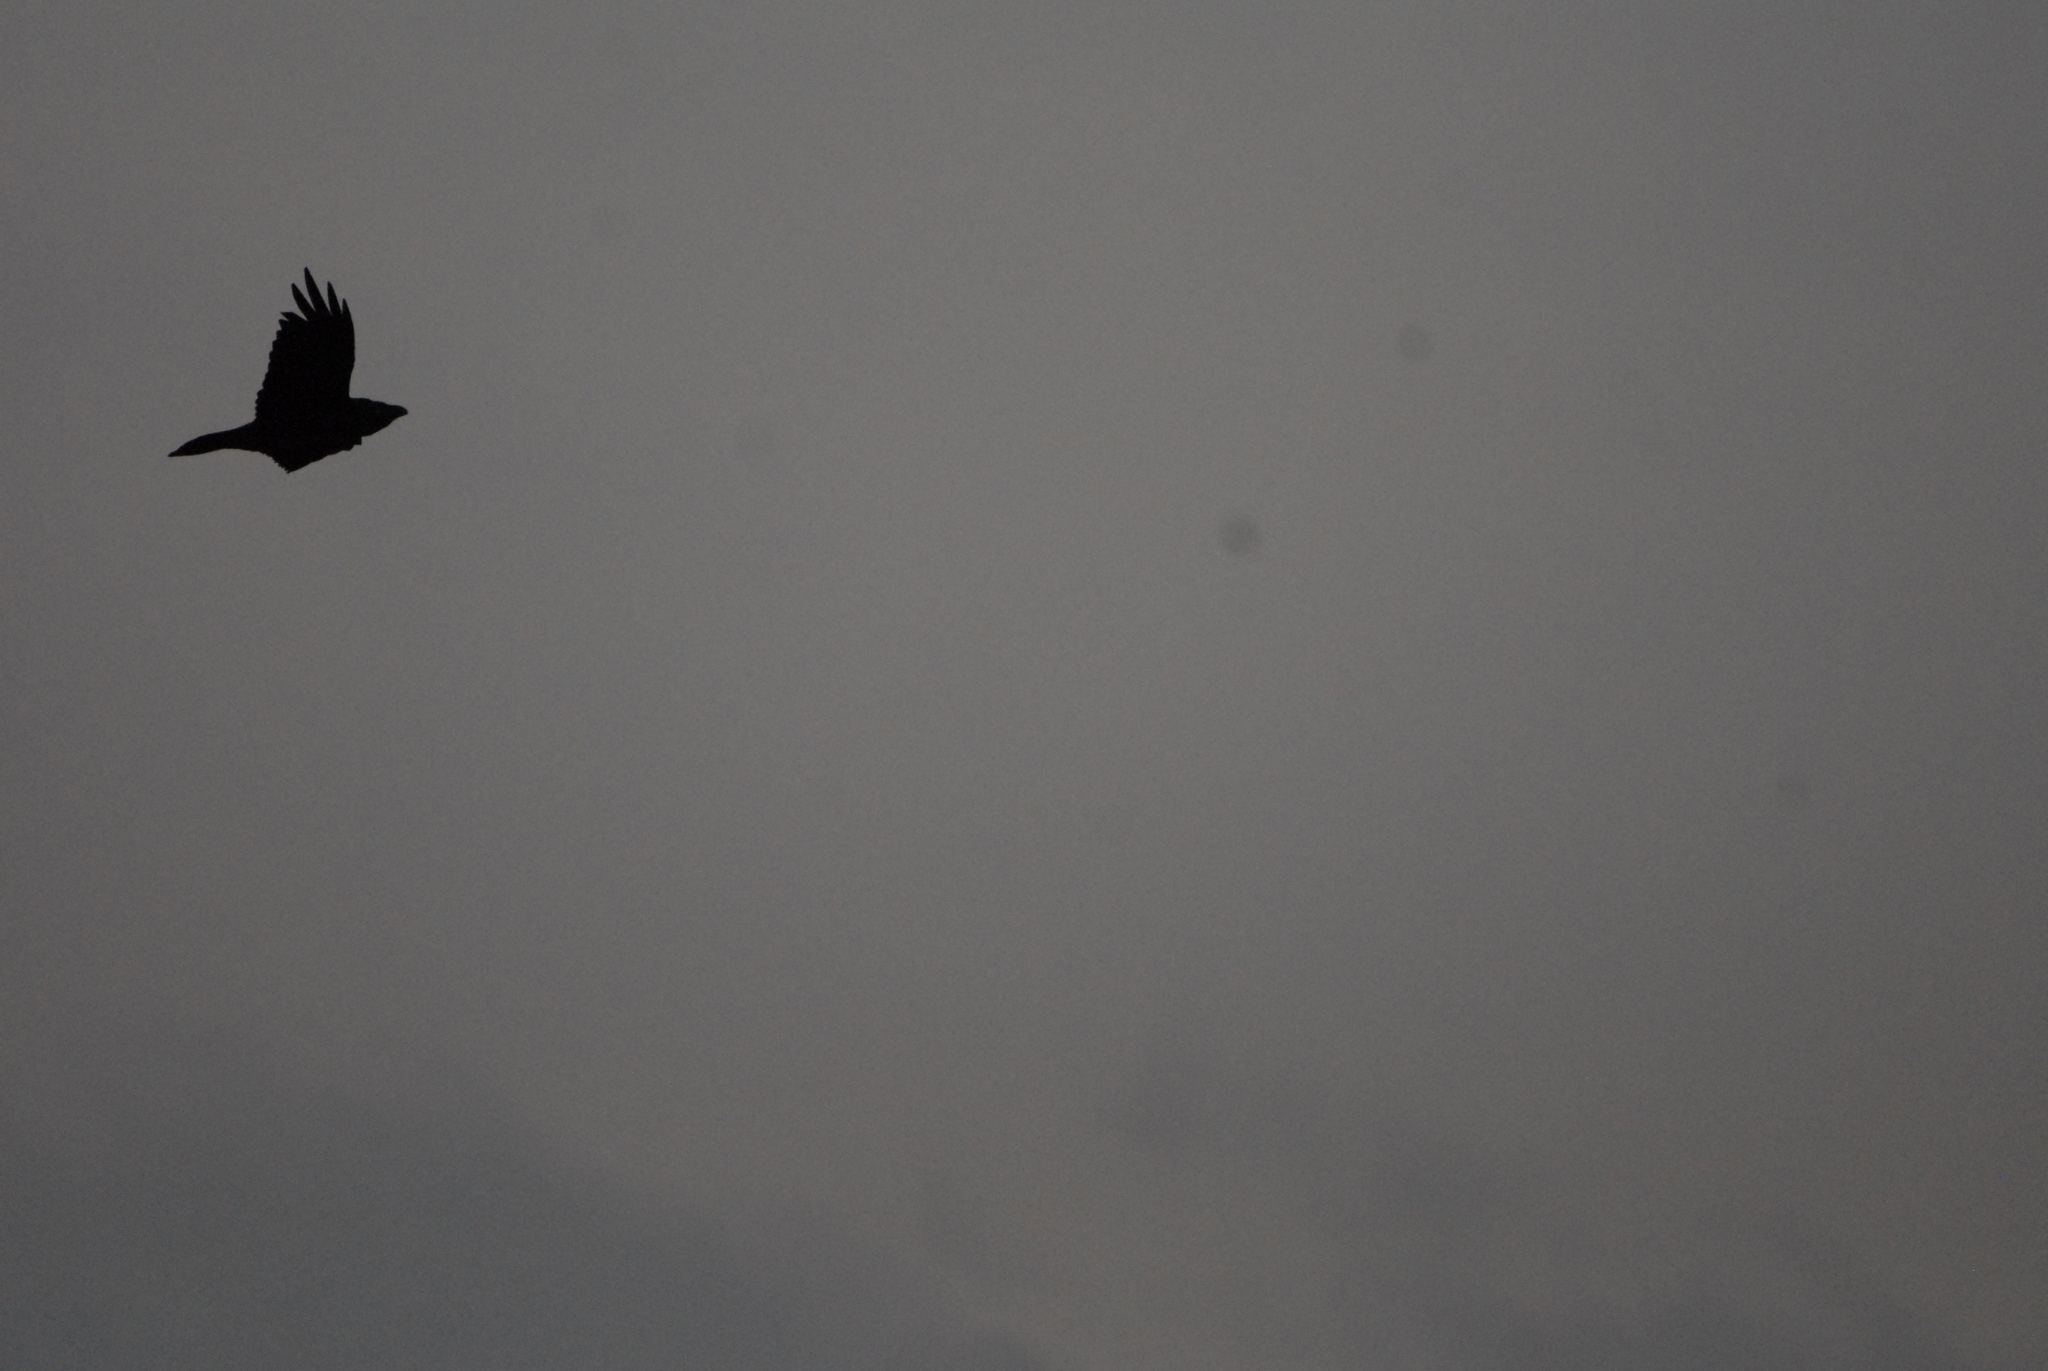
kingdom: Animalia
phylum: Chordata
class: Aves
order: Passeriformes
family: Corvidae
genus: Corvus
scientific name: Corvus corax
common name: Common raven
